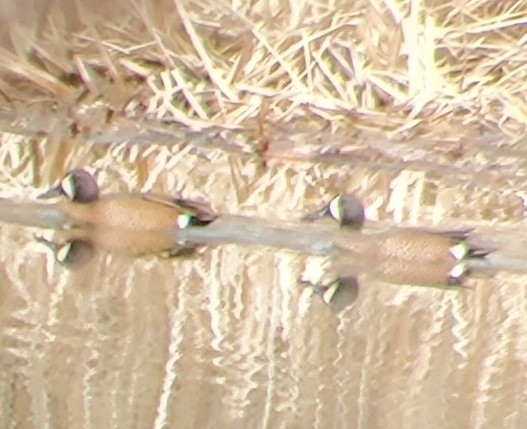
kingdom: Animalia
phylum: Chordata
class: Aves
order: Anseriformes
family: Anatidae
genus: Spatula
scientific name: Spatula discors
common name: Blue-winged teal
